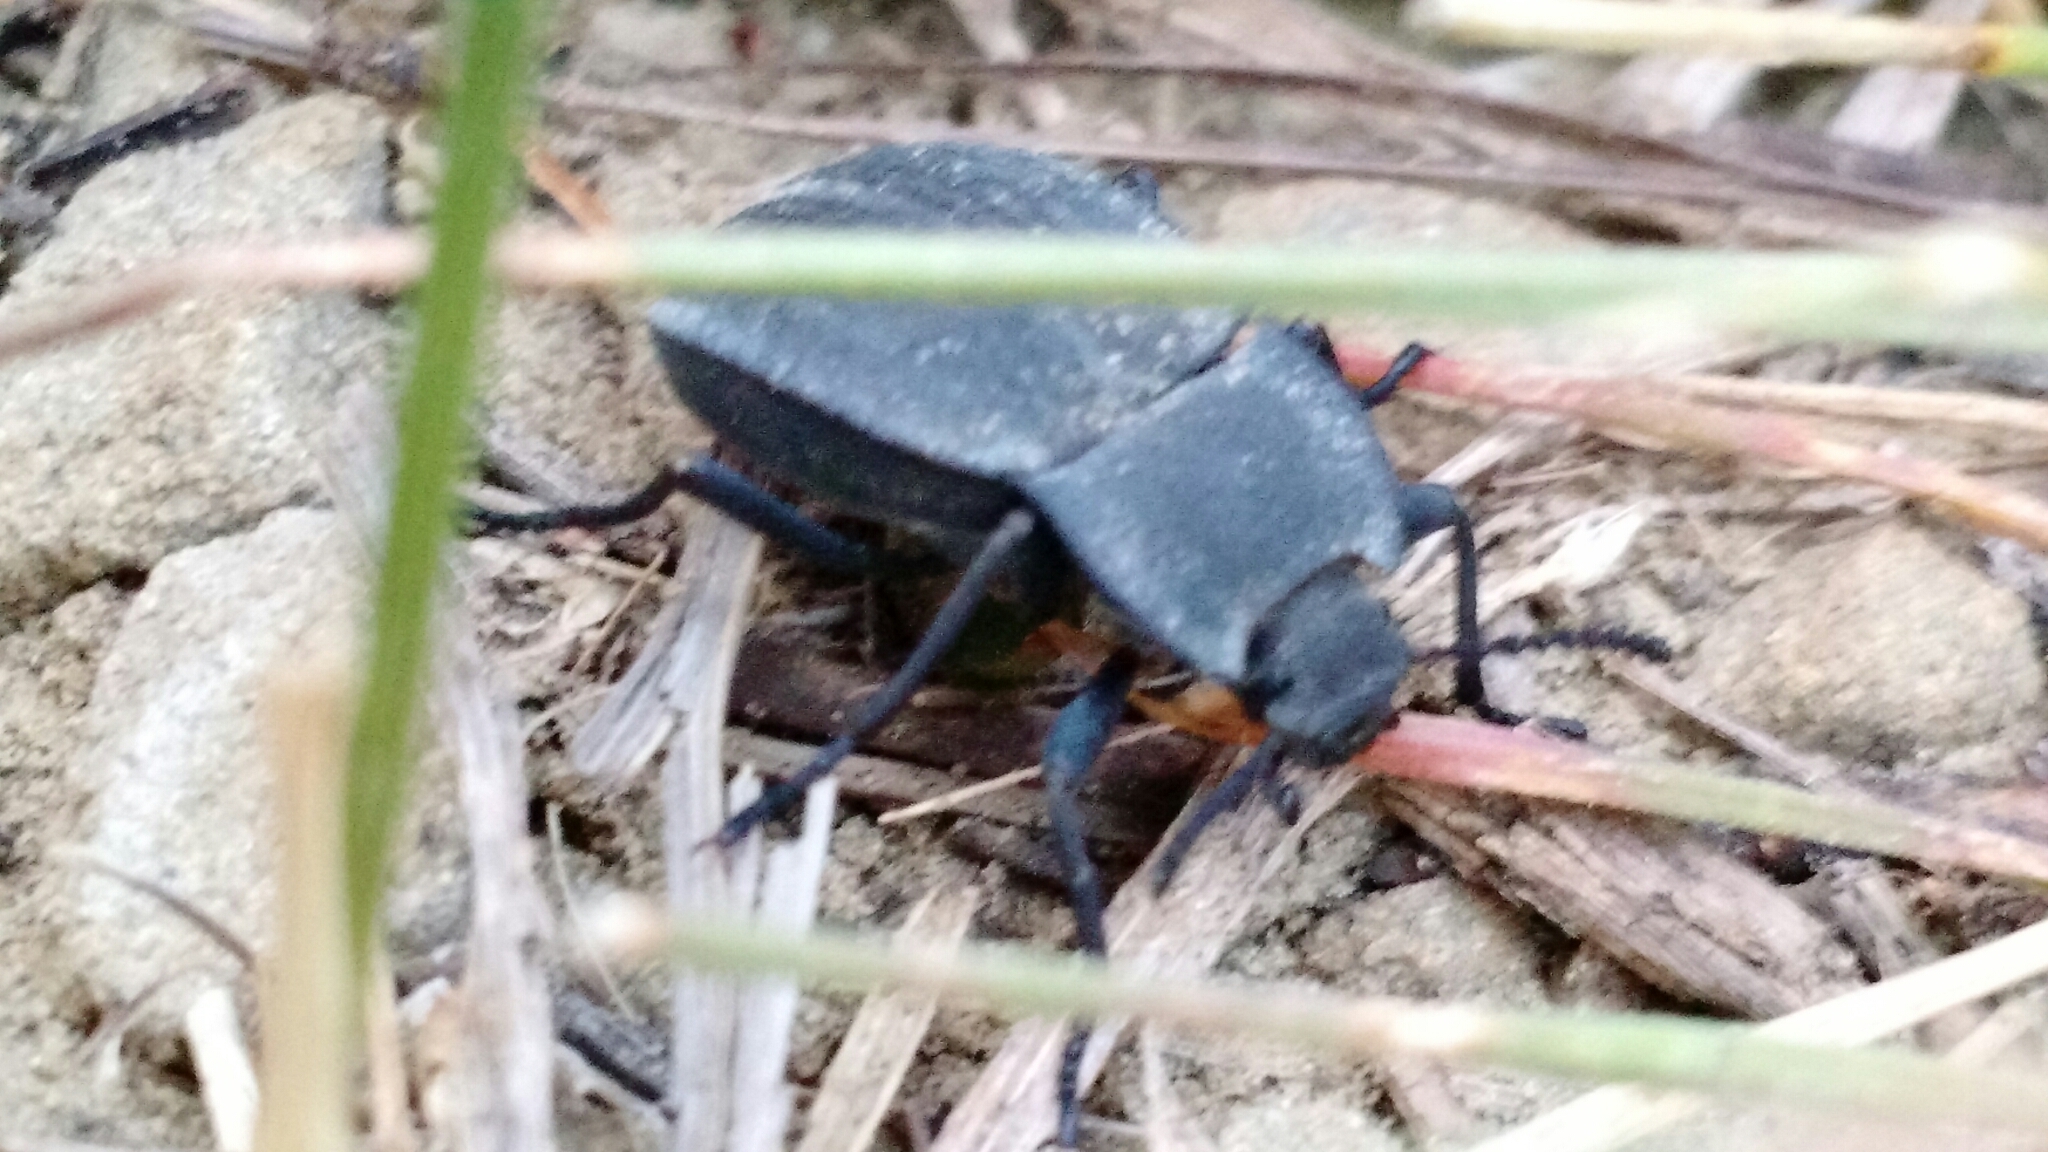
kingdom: Animalia
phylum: Arthropoda
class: Insecta
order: Coleoptera
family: Tenebrionidae
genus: Stenomorpha
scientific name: Stenomorpha opaca
